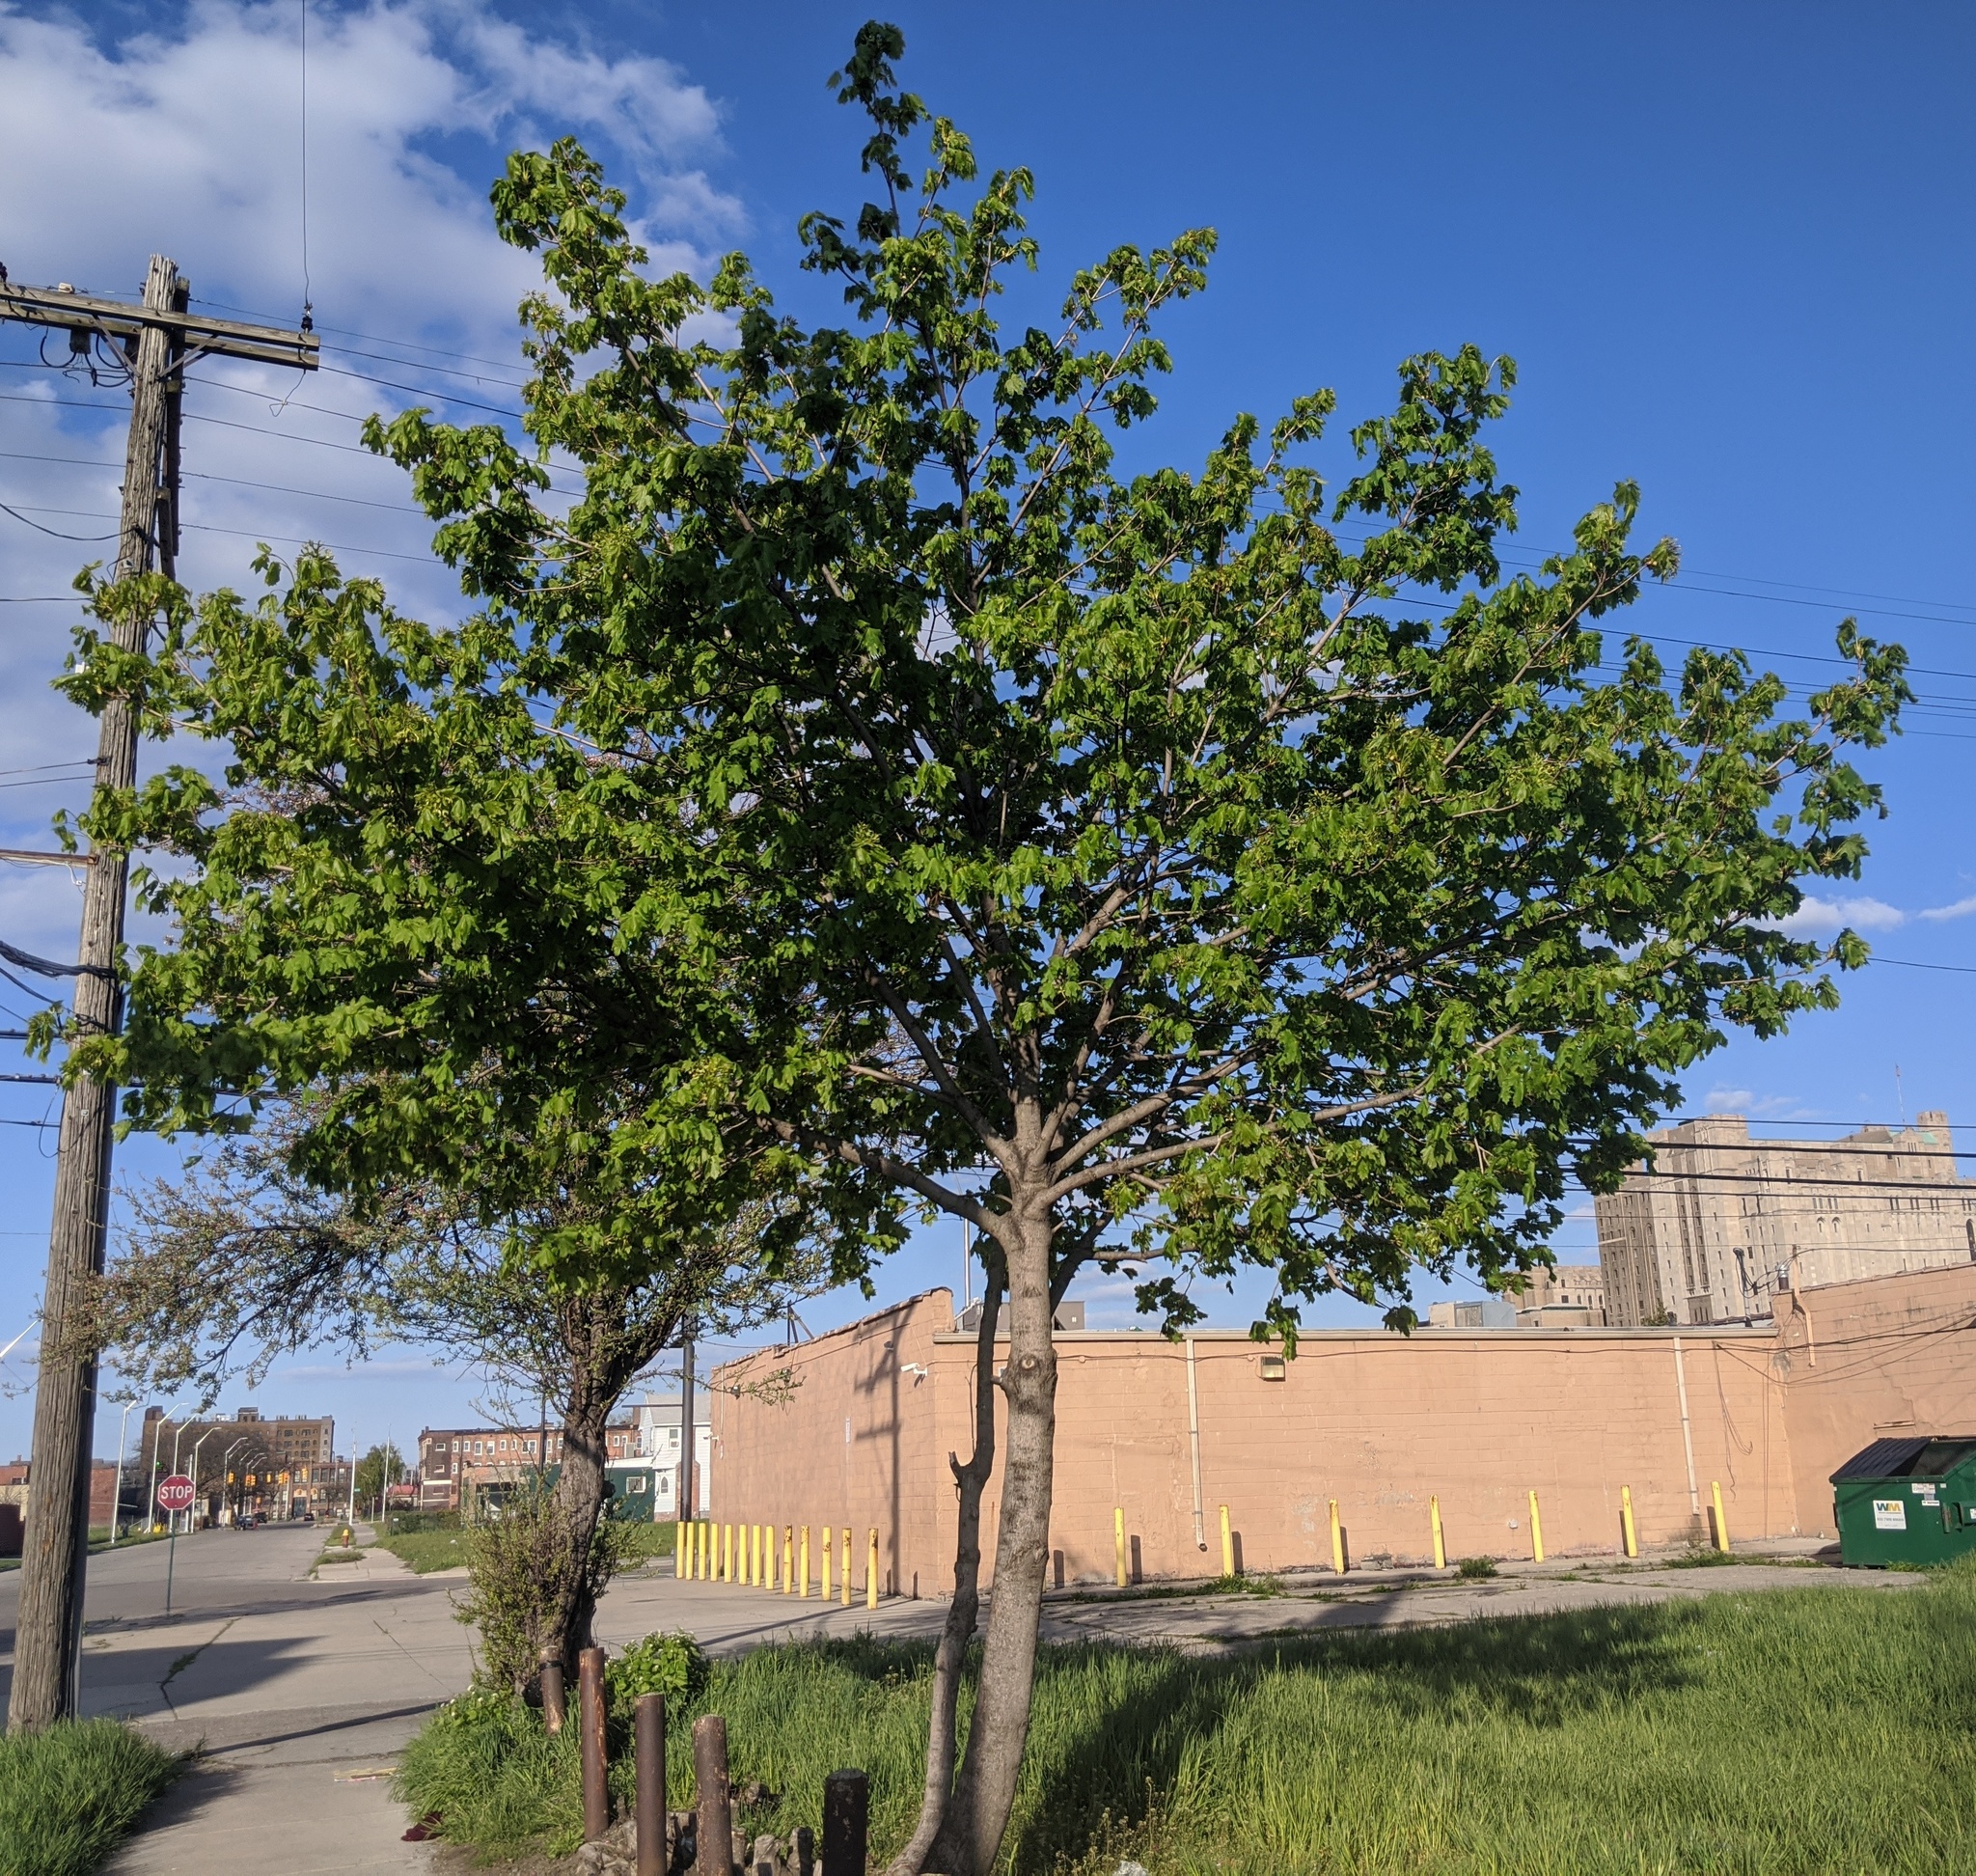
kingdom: Plantae
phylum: Tracheophyta
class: Magnoliopsida
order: Sapindales
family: Sapindaceae
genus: Acer
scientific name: Acer platanoides
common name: Norway maple
